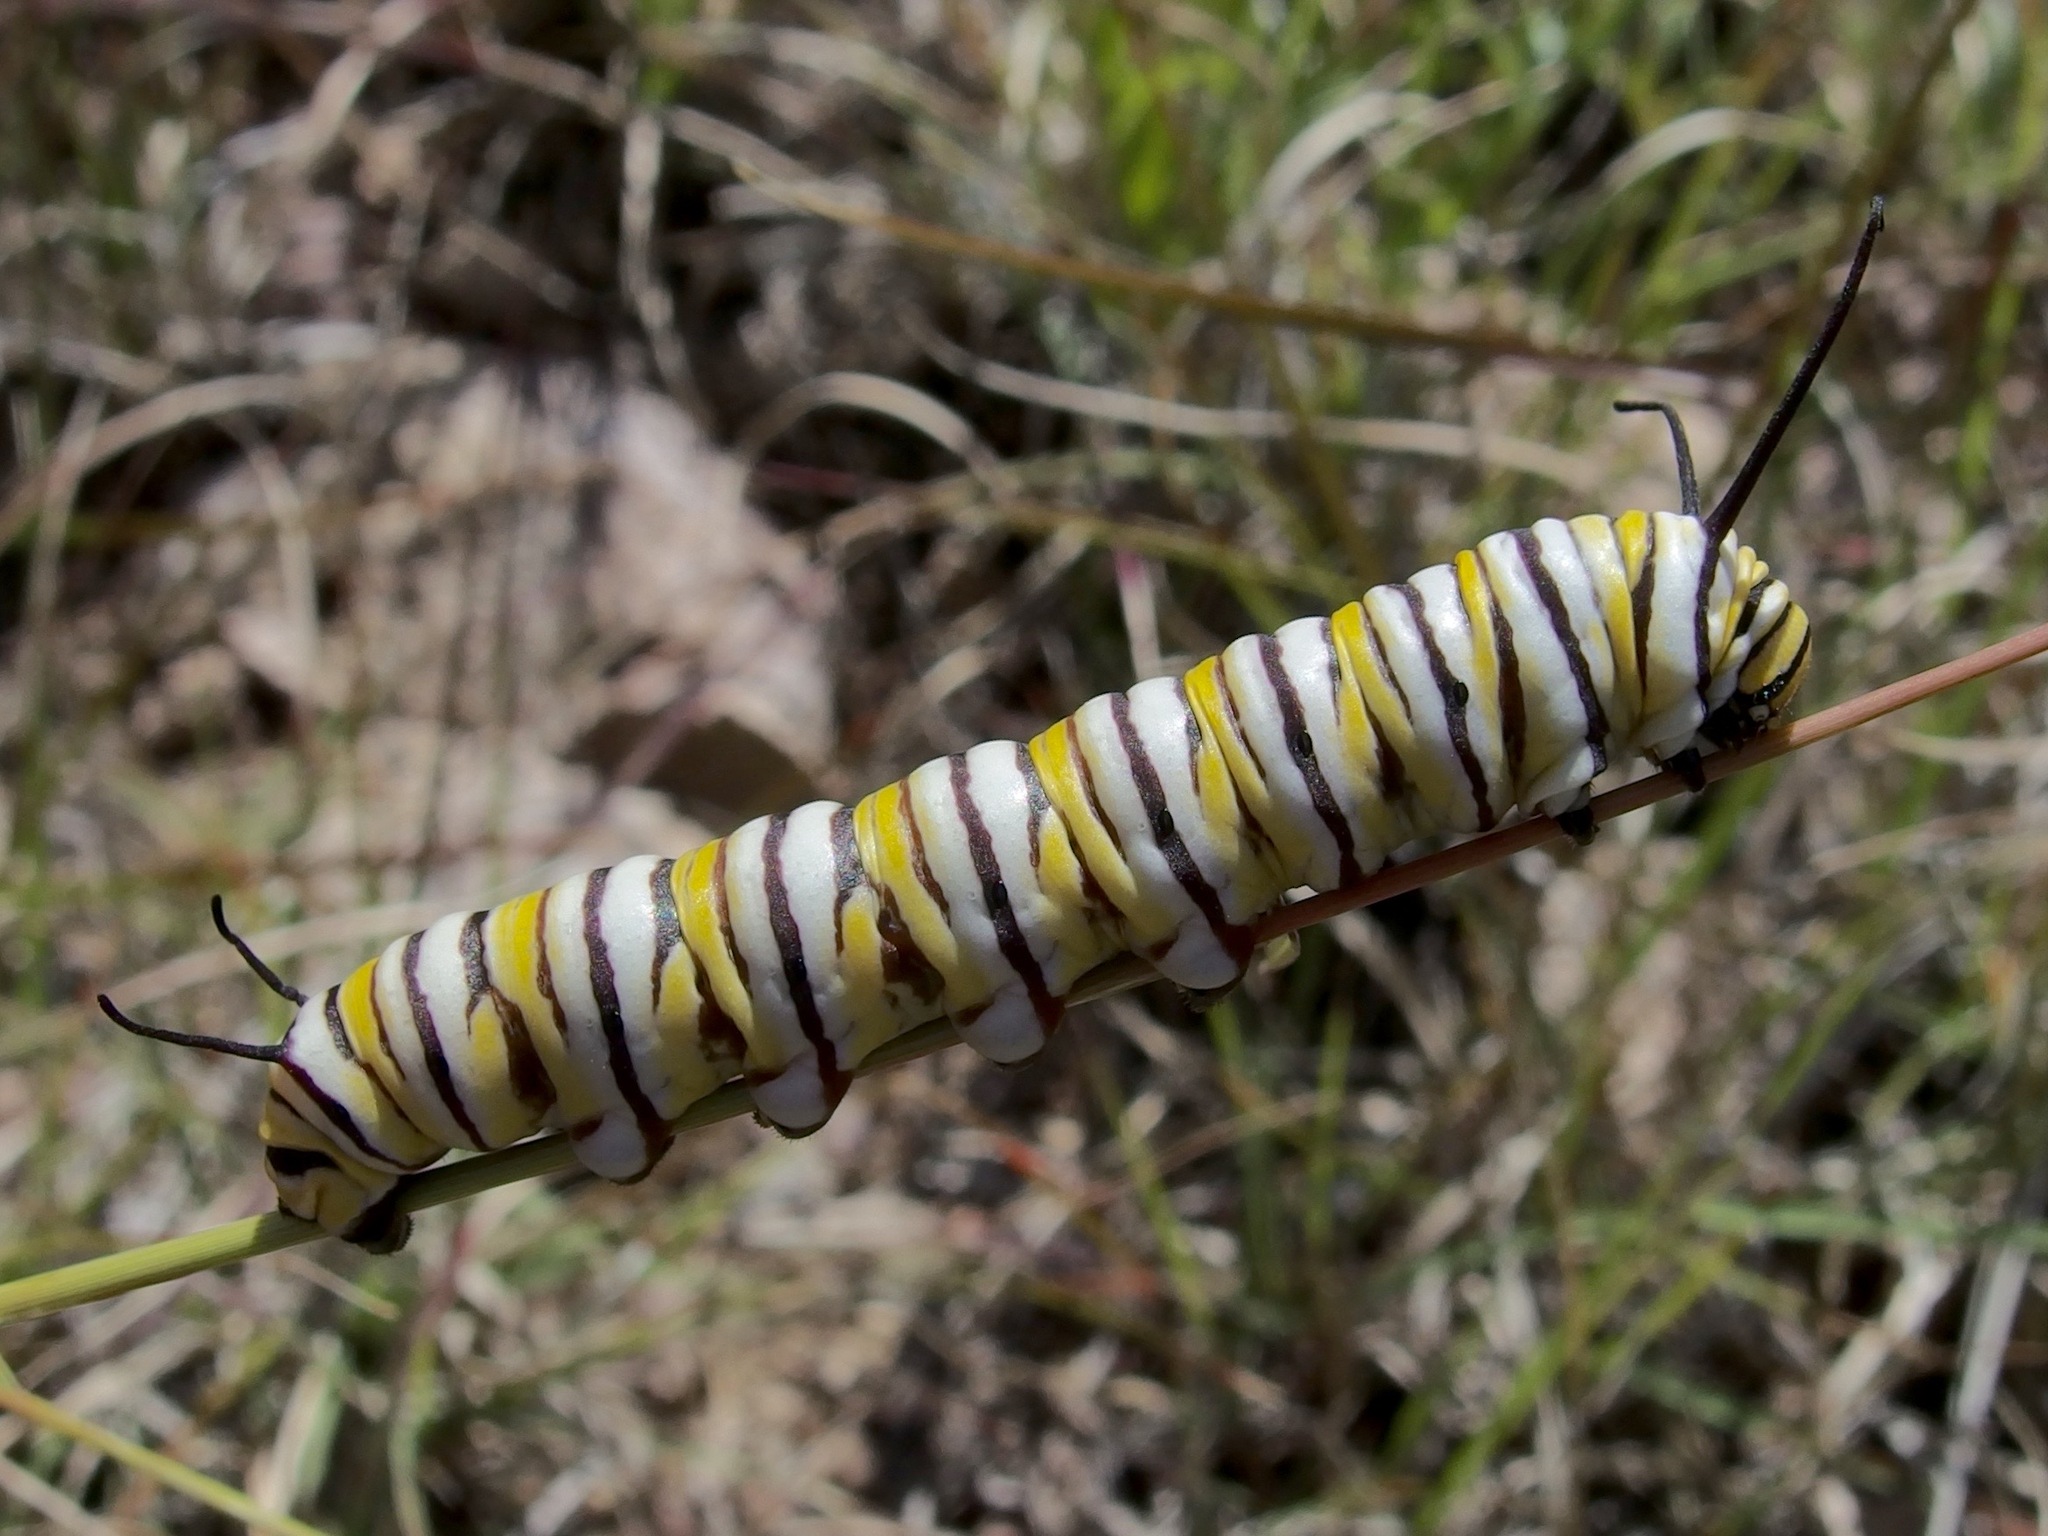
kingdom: Animalia
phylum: Arthropoda
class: Insecta
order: Lepidoptera
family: Nymphalidae
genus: Danaus
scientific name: Danaus plexippus
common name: Monarch
